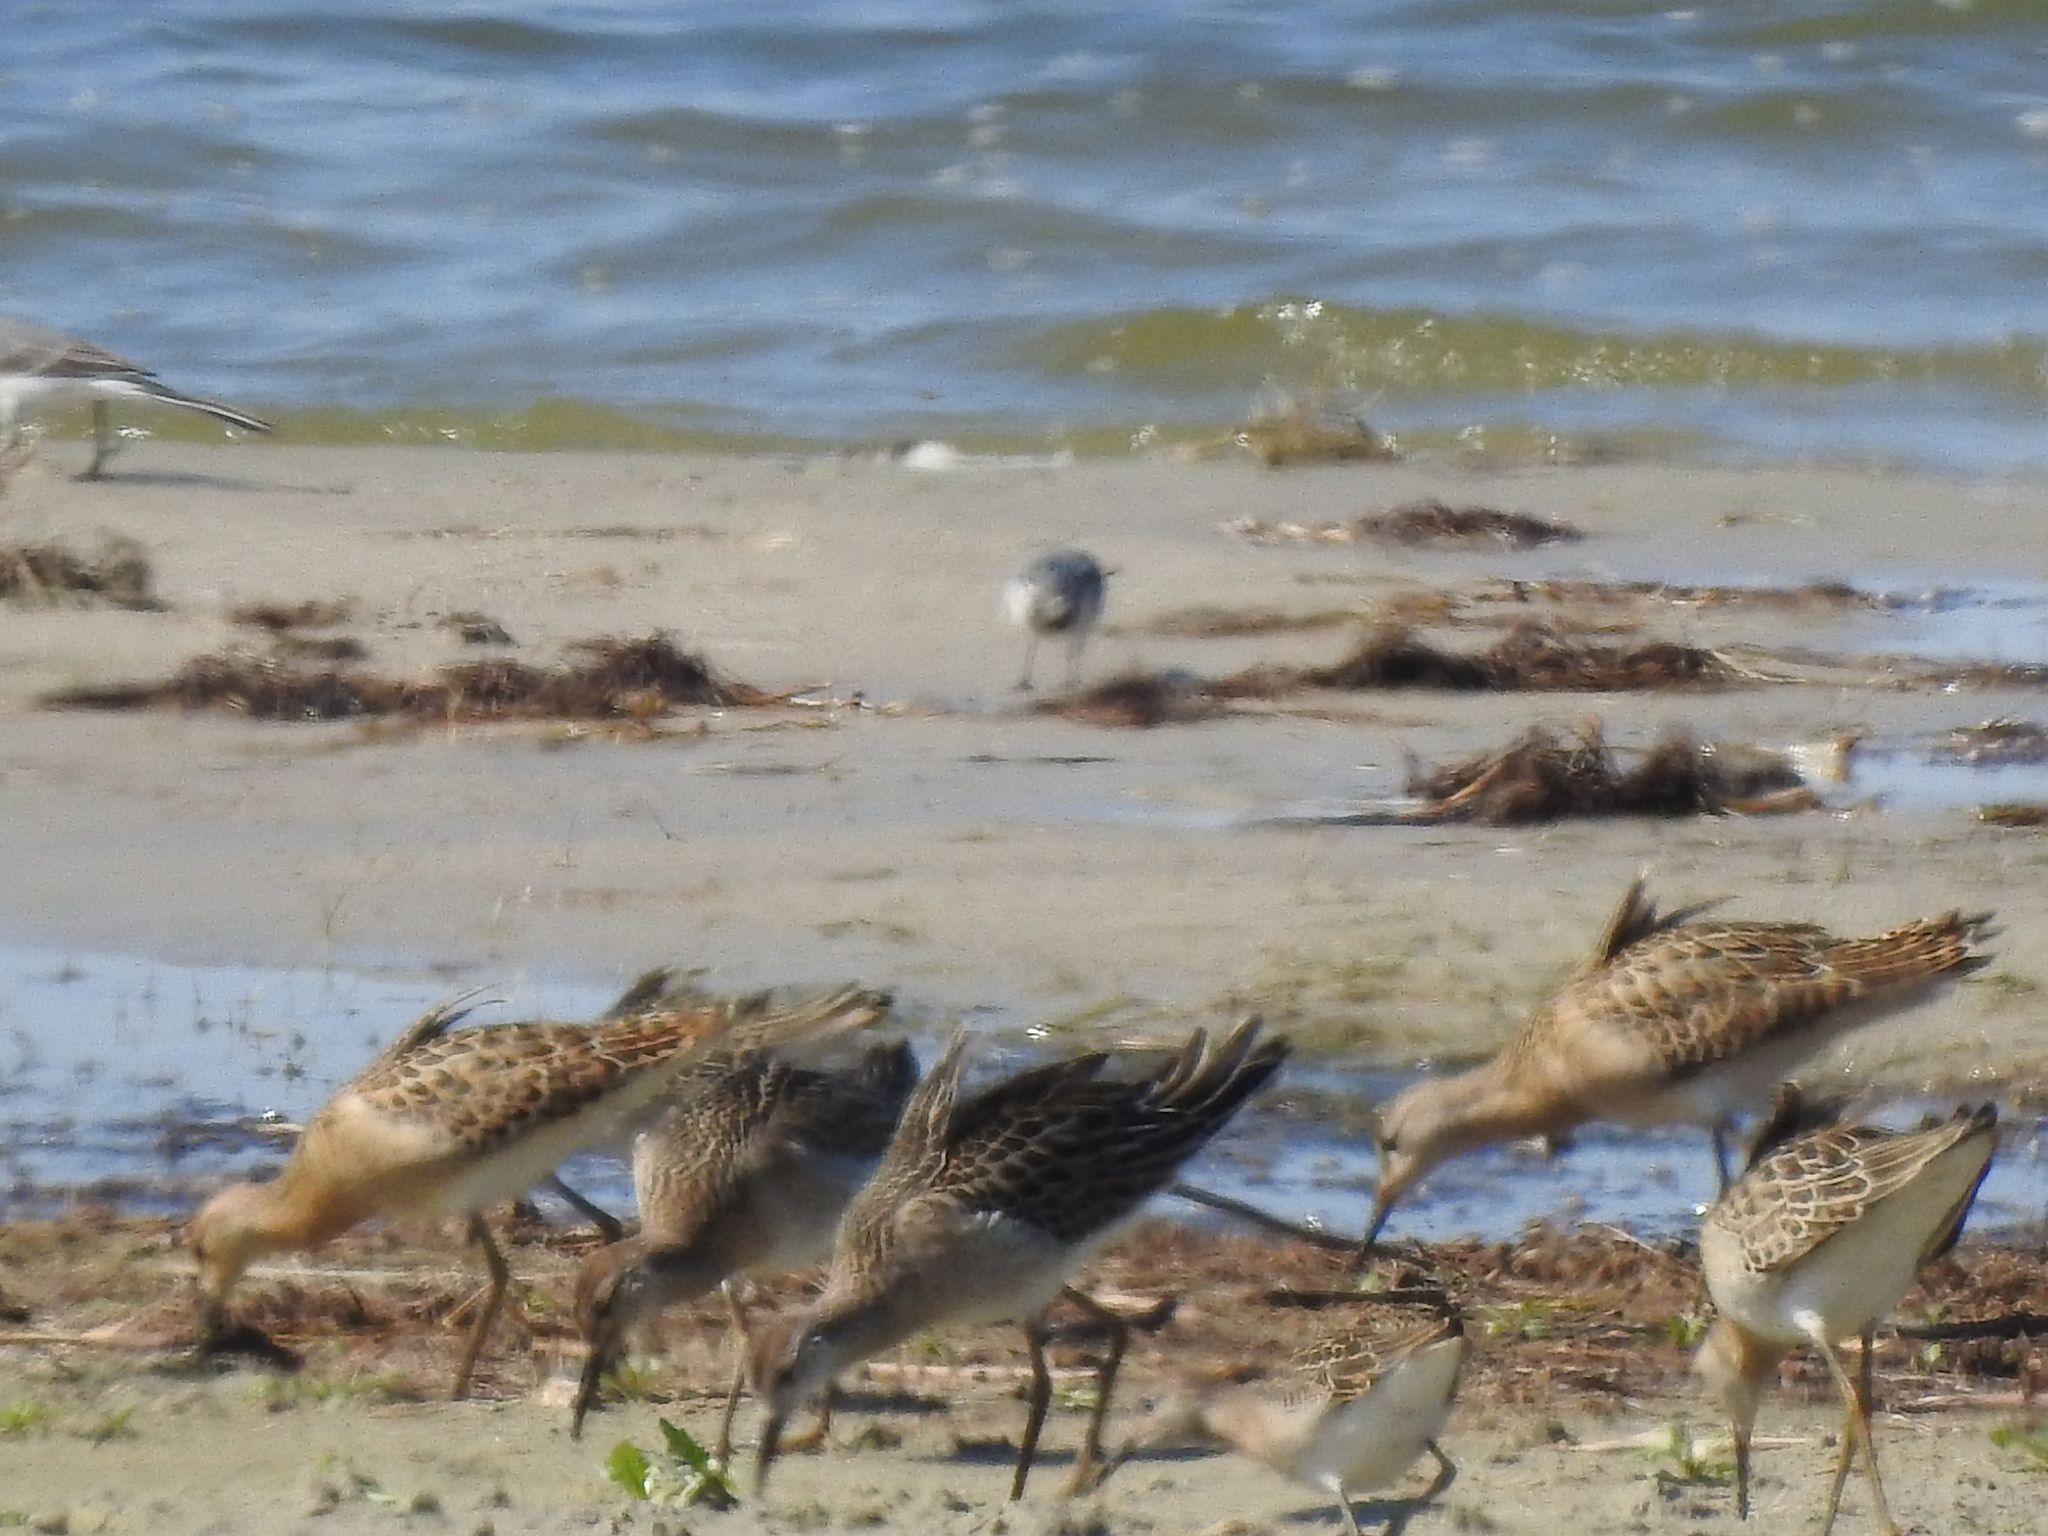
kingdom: Animalia
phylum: Chordata
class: Aves
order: Charadriiformes
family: Scolopacidae
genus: Calidris
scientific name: Calidris pugnax
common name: Ruff
